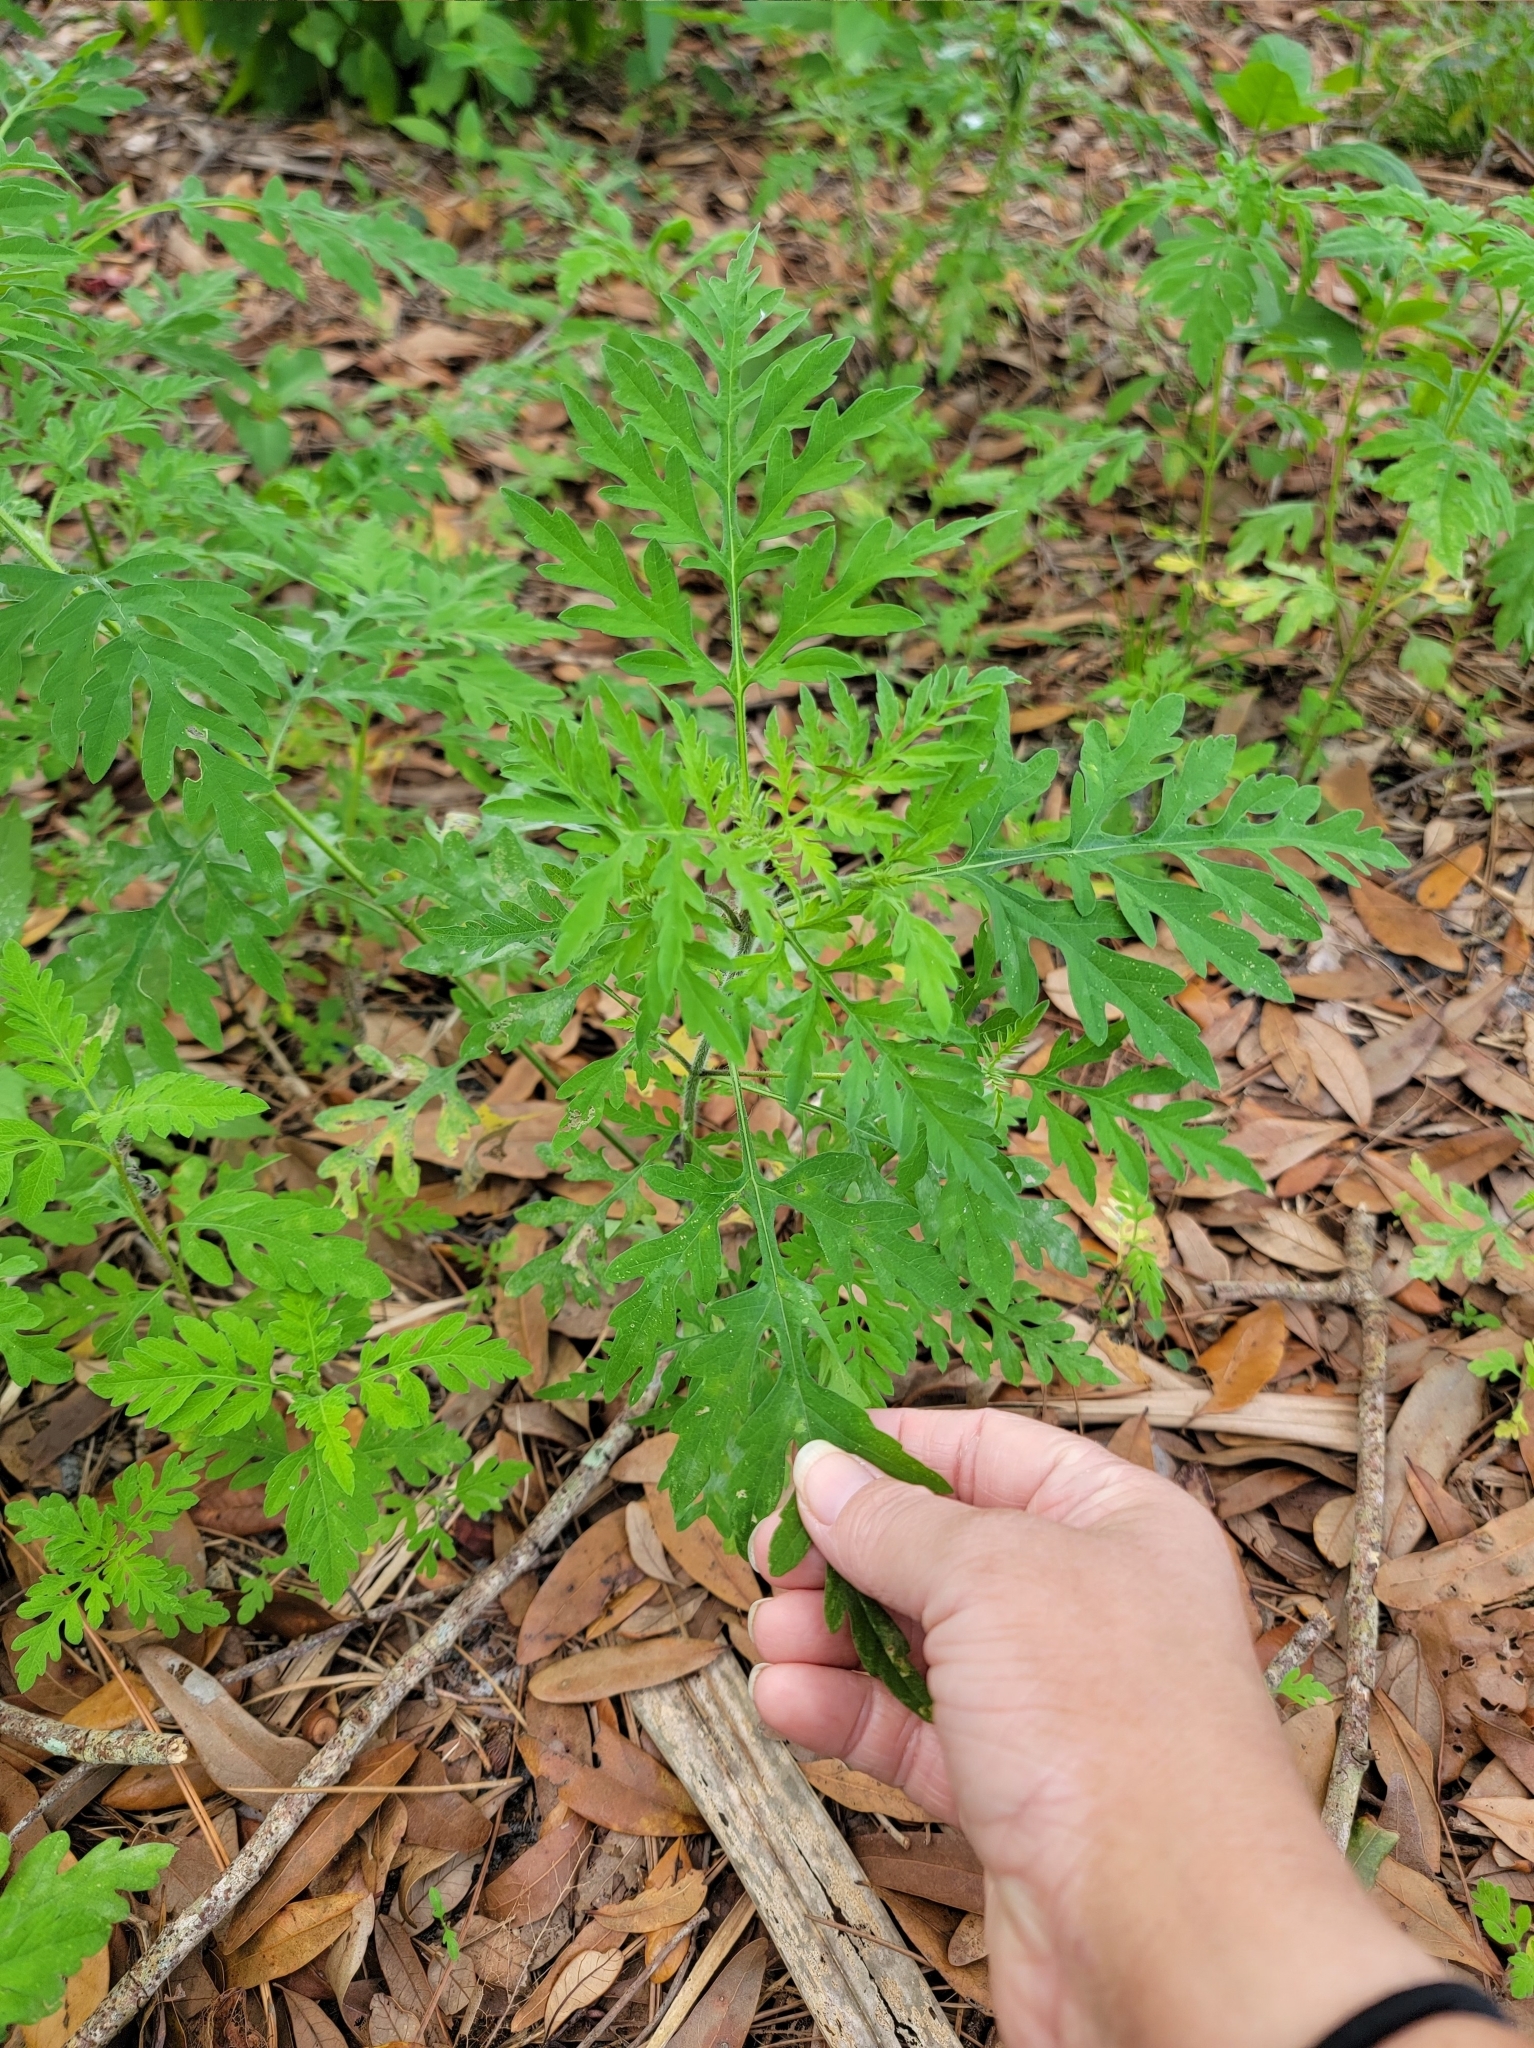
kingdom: Plantae
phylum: Tracheophyta
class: Magnoliopsida
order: Asterales
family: Asteraceae
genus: Ambrosia
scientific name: Ambrosia artemisiifolia
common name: Annual ragweed
